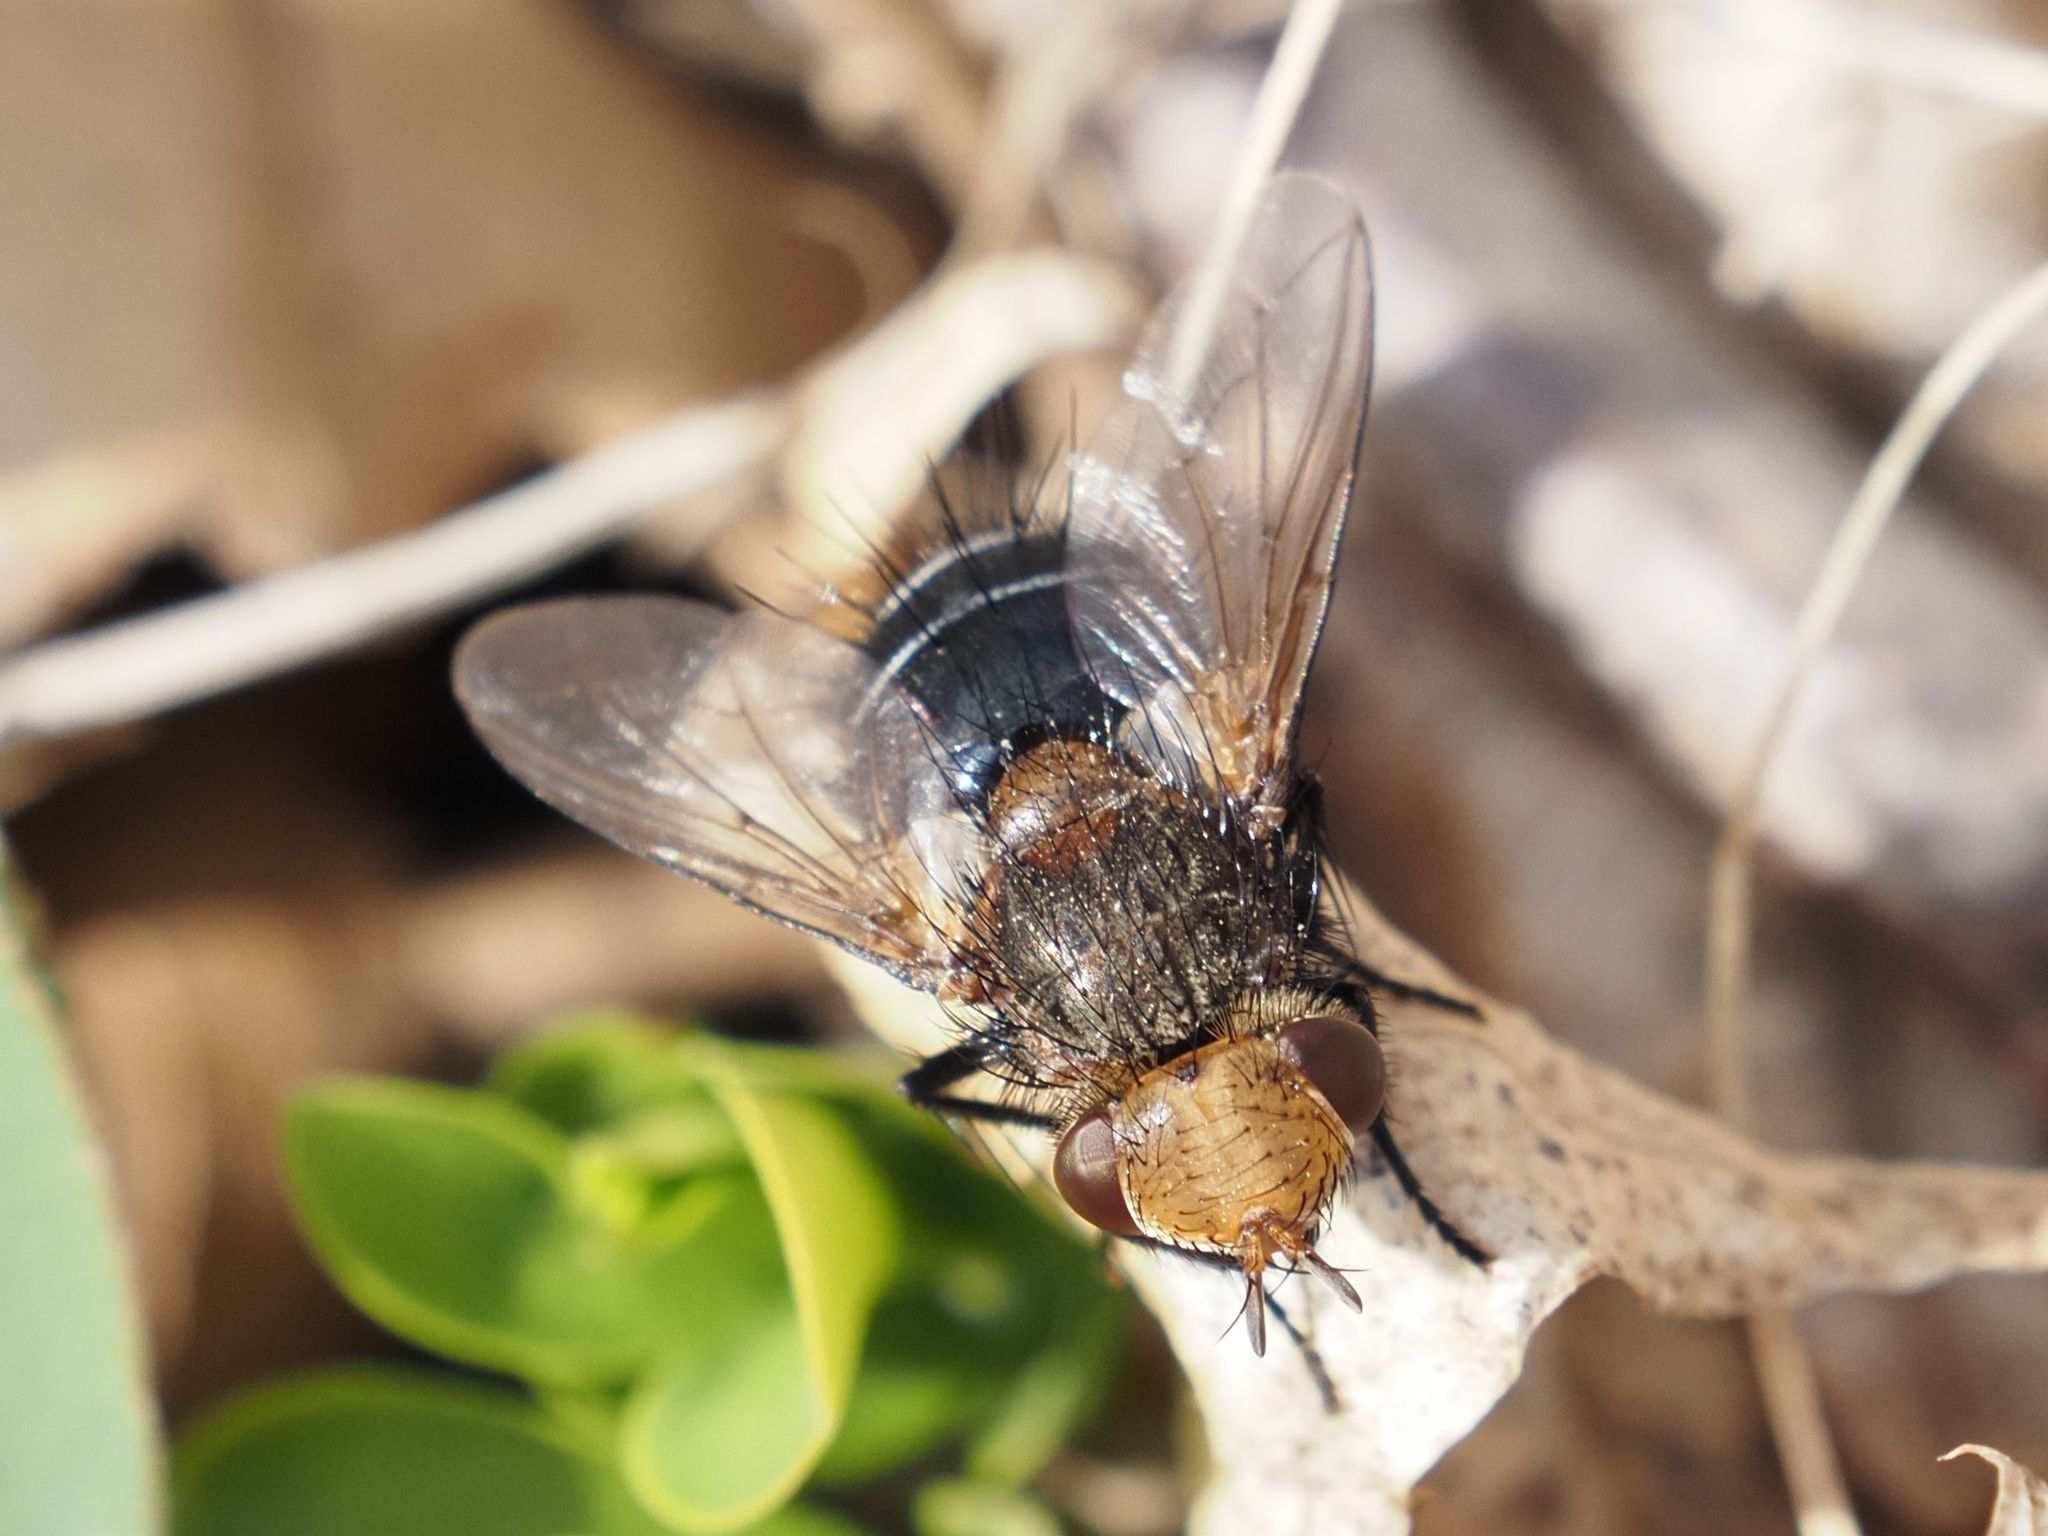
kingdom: Animalia
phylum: Arthropoda
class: Insecta
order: Diptera
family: Tachinidae
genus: Gonia
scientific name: Gonia picea
